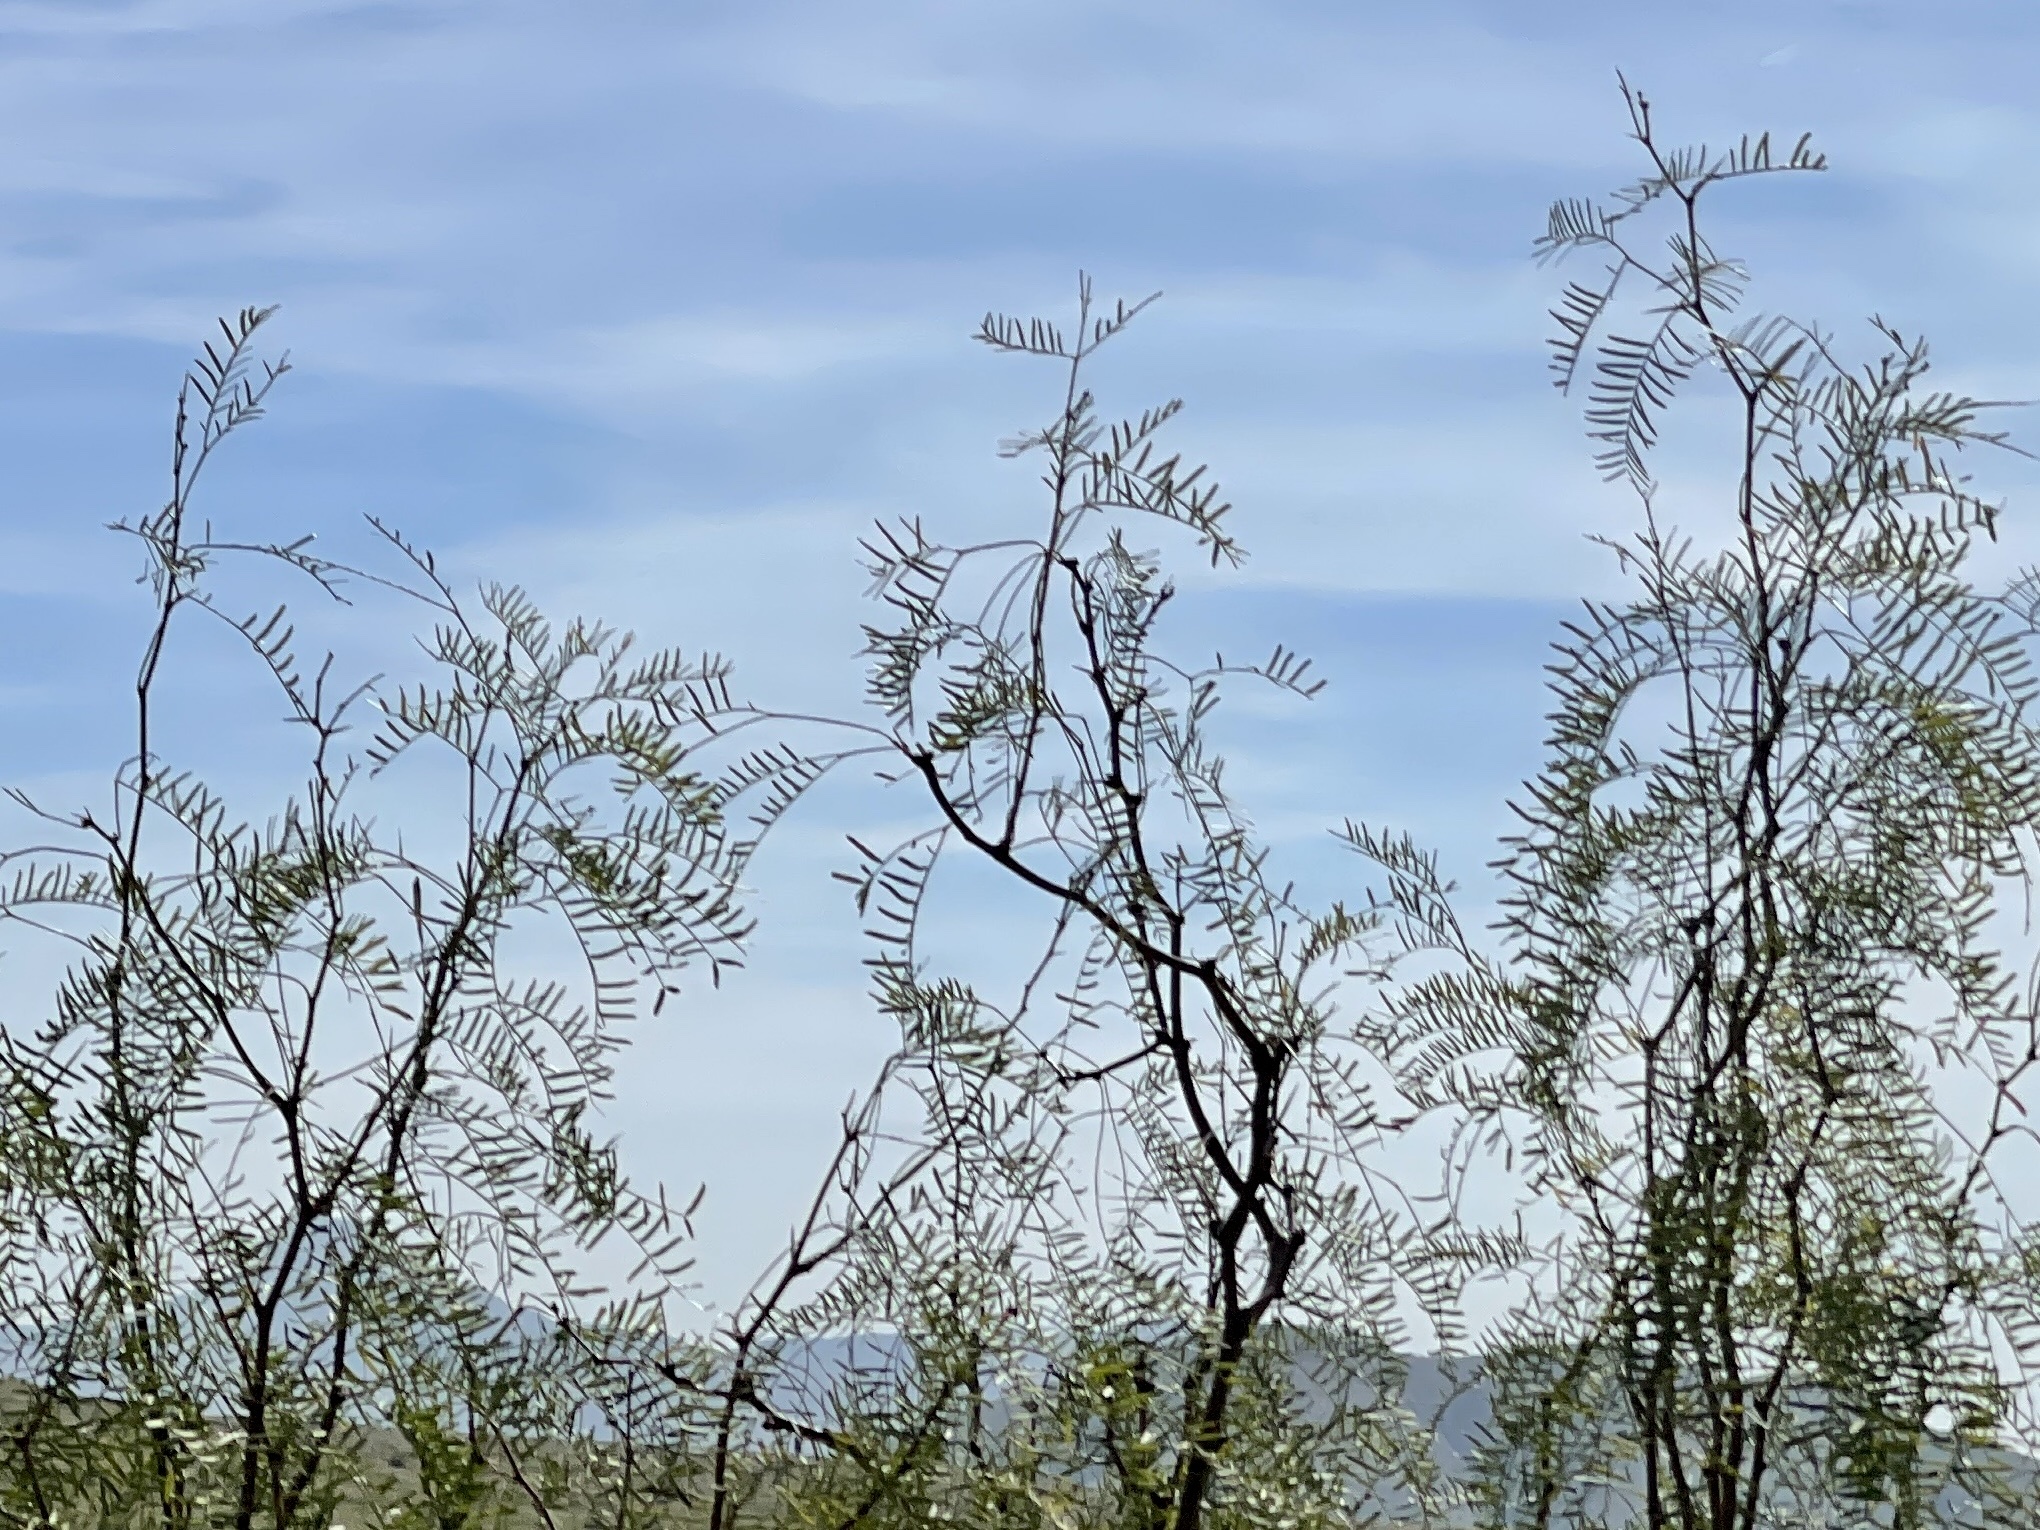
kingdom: Plantae
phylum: Tracheophyta
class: Magnoliopsida
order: Fabales
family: Fabaceae
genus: Prosopis
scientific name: Prosopis glandulosa
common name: Honey mesquite
